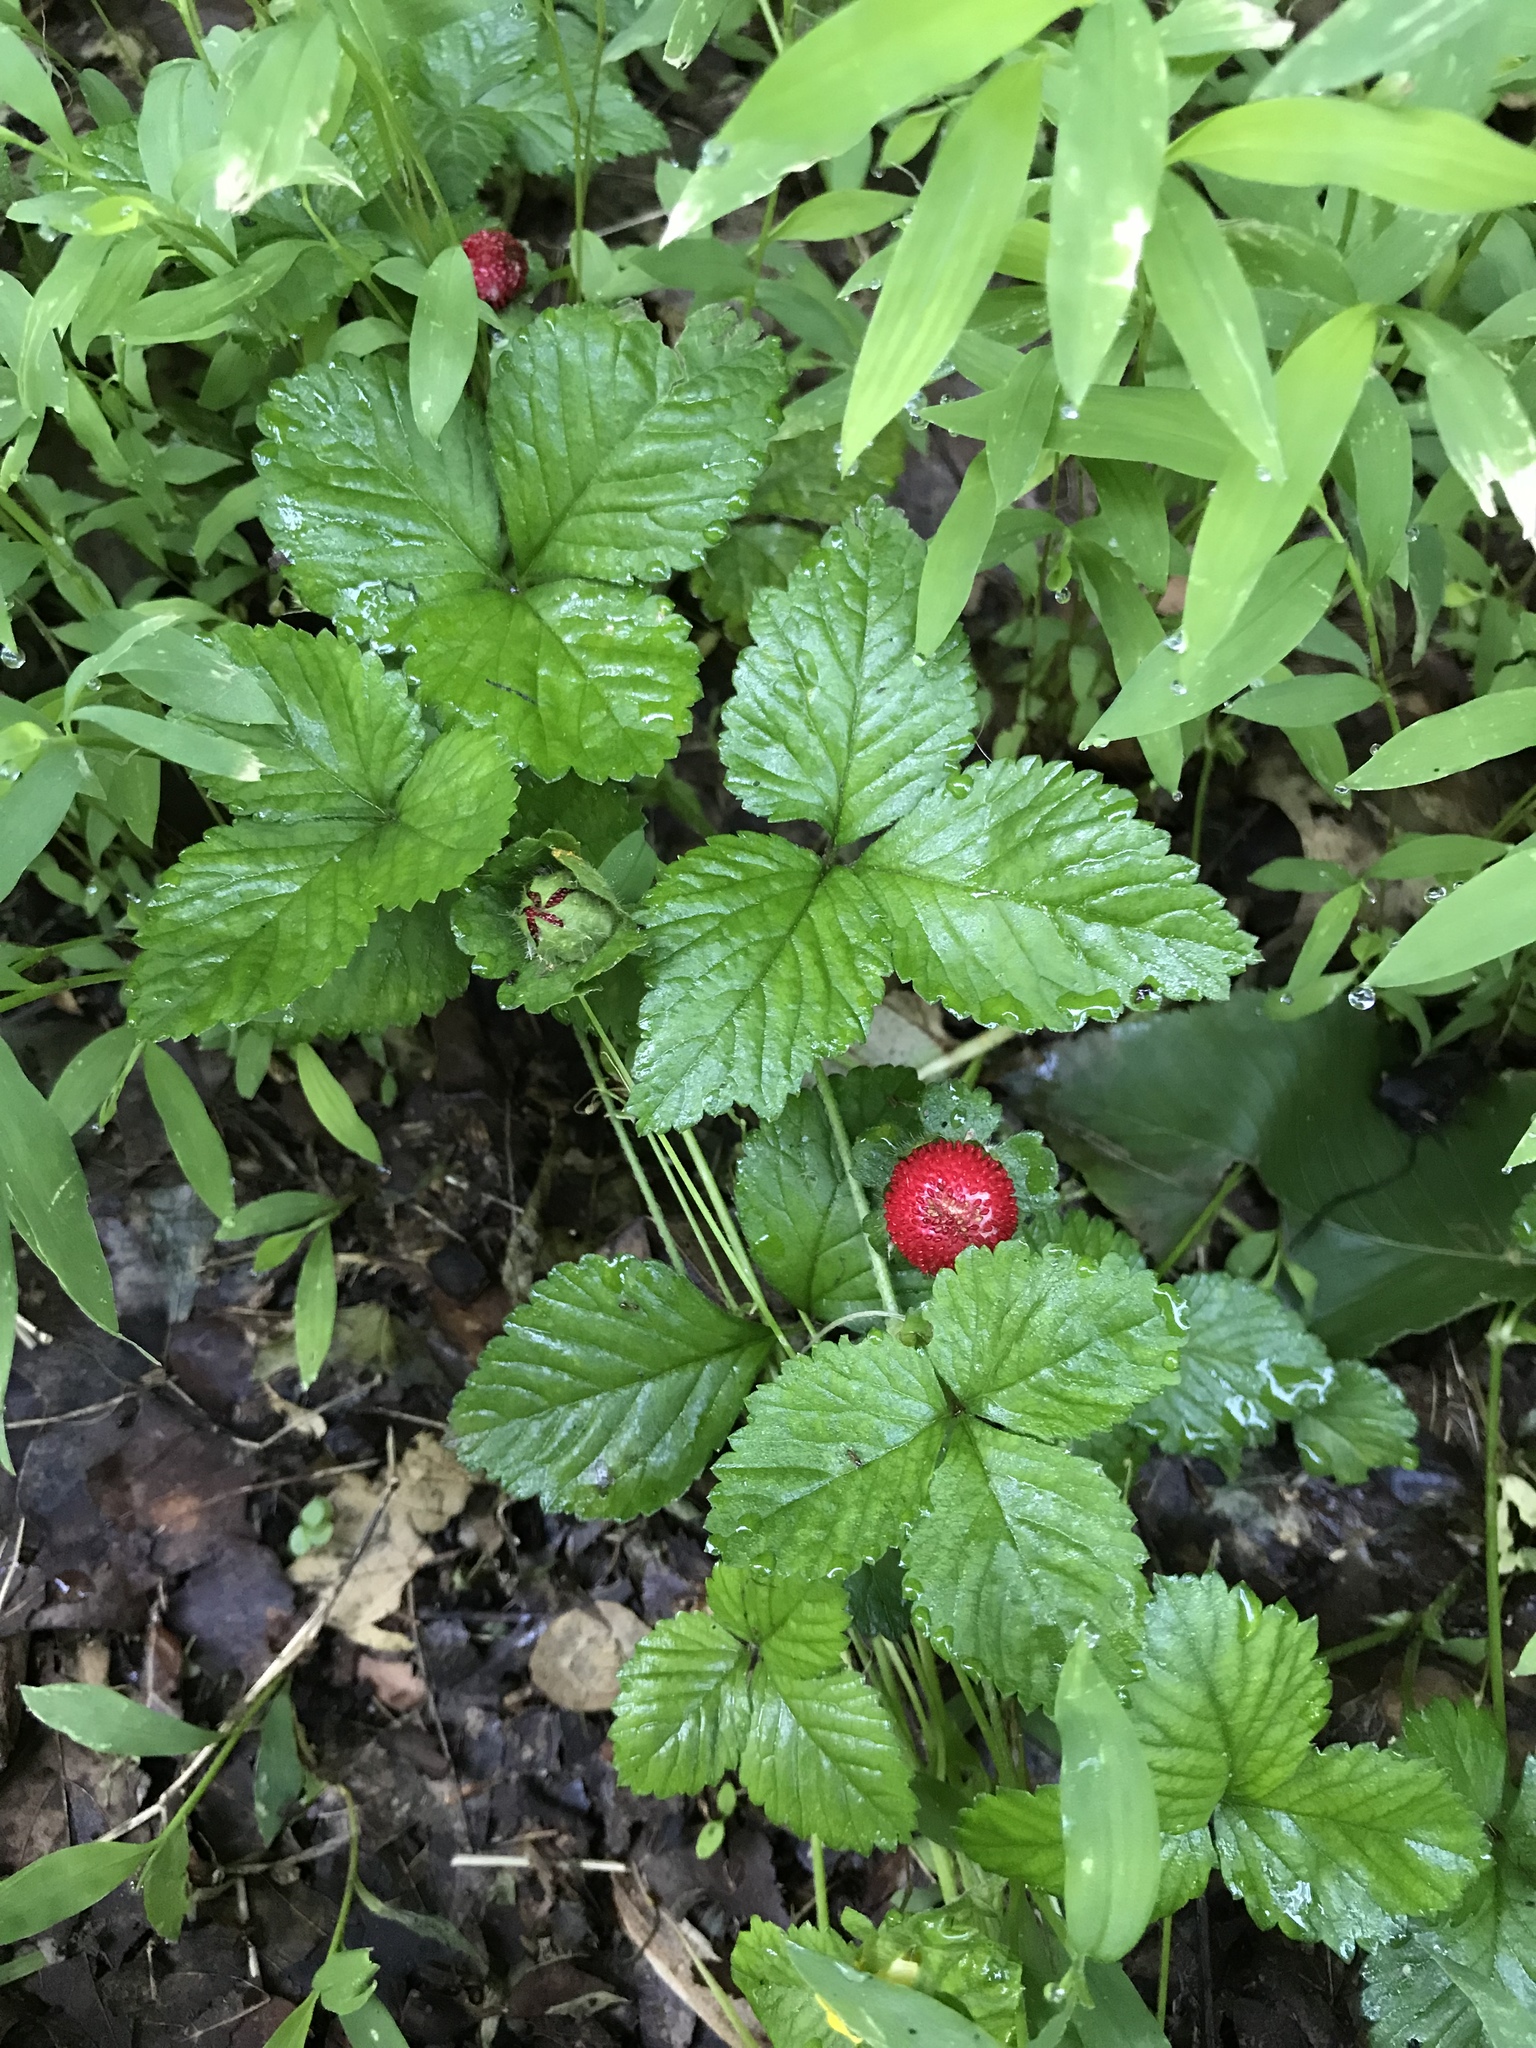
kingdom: Plantae
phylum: Tracheophyta
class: Magnoliopsida
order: Rosales
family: Rosaceae
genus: Potentilla
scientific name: Potentilla indica
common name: Yellow-flowered strawberry
